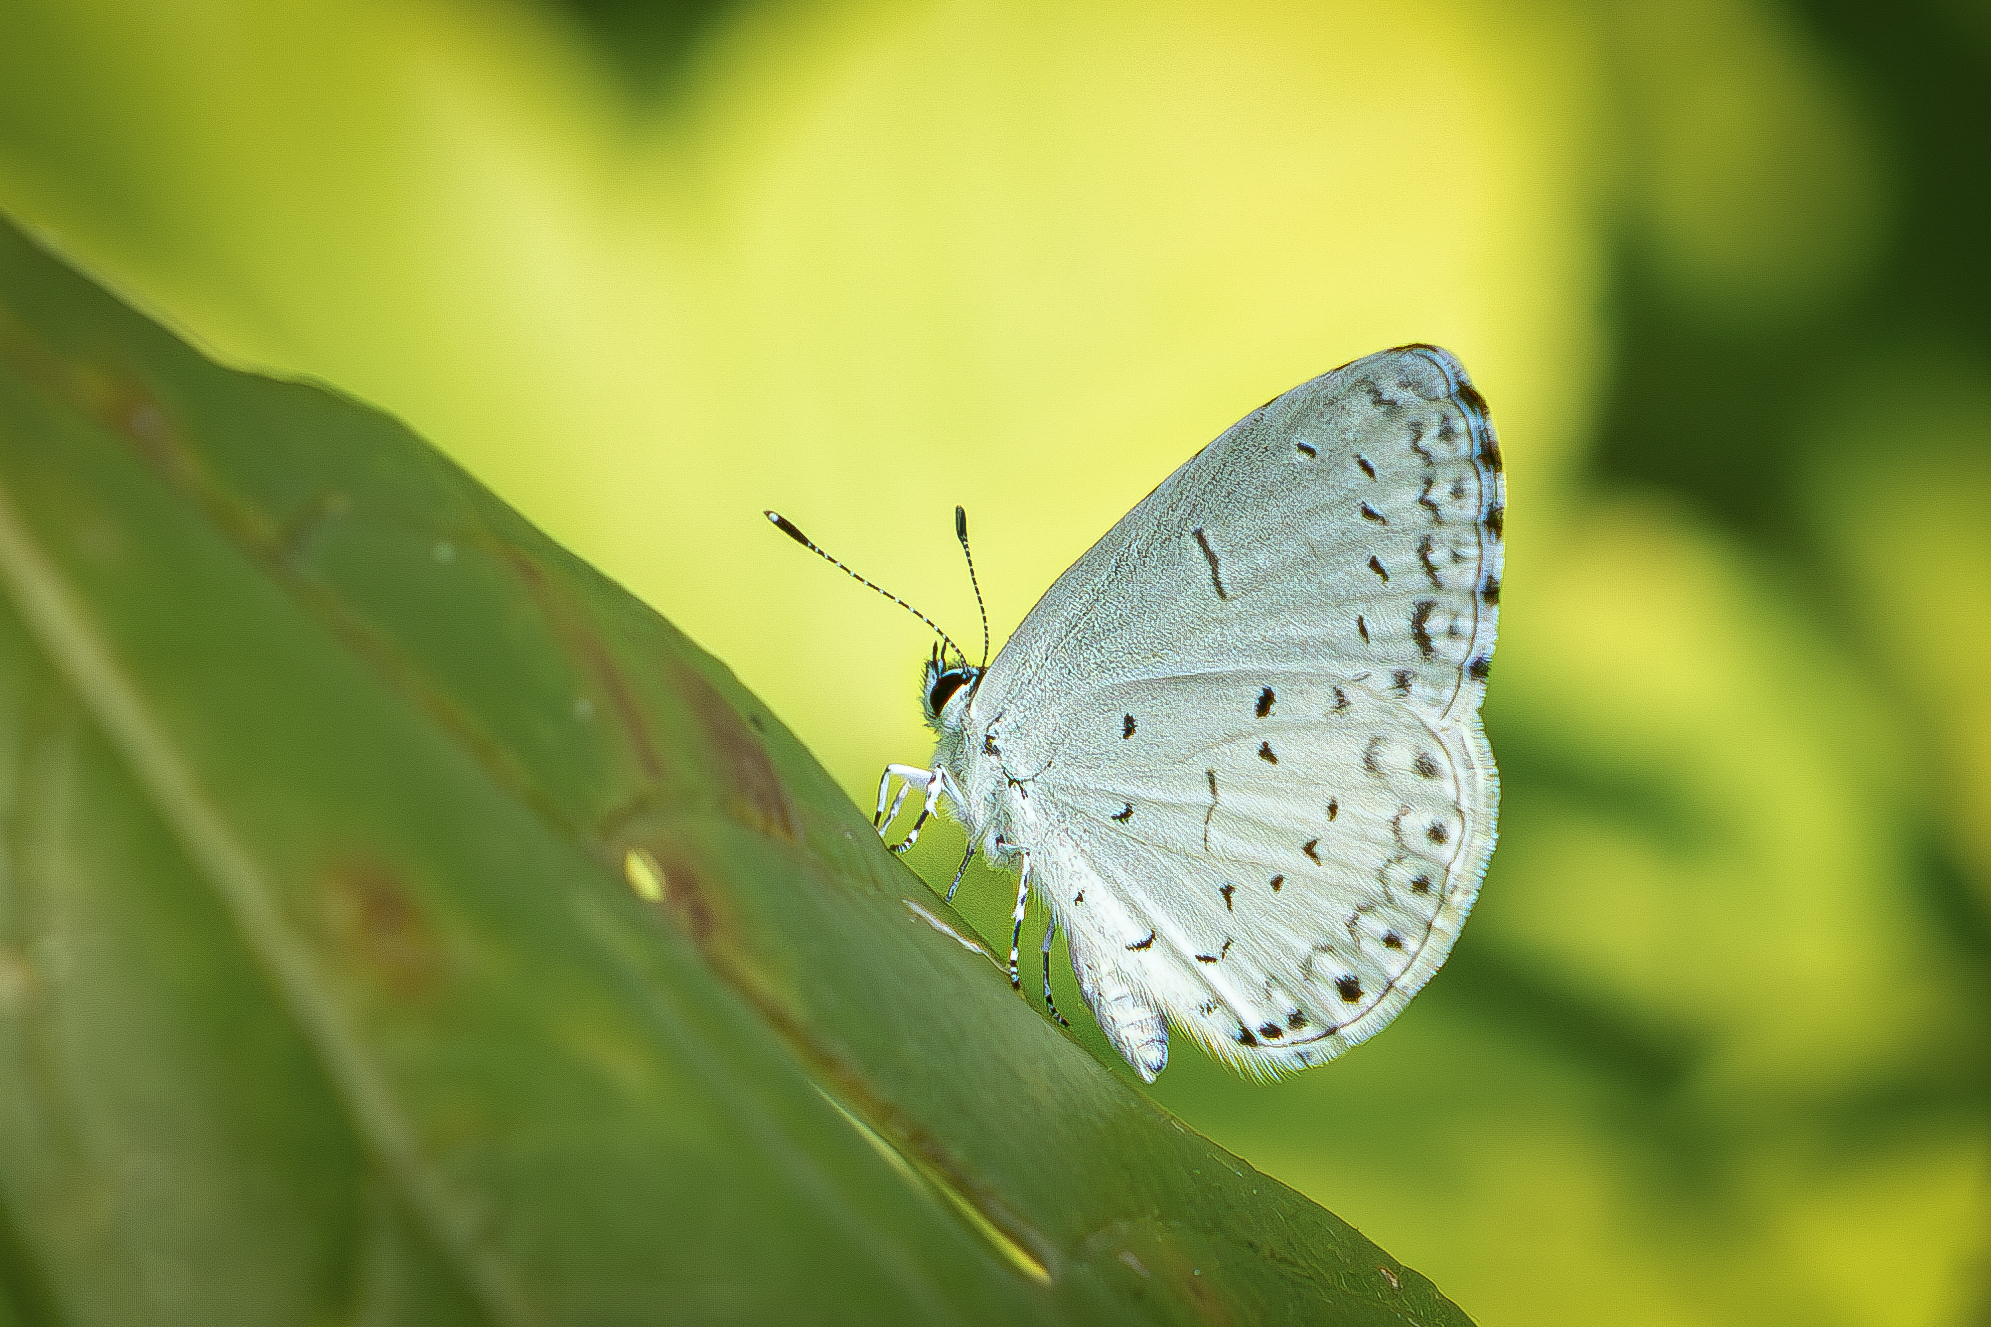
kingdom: Animalia
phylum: Arthropoda
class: Insecta
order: Lepidoptera
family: Lycaenidae
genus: Cyaniris
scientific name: Cyaniris neglecta
